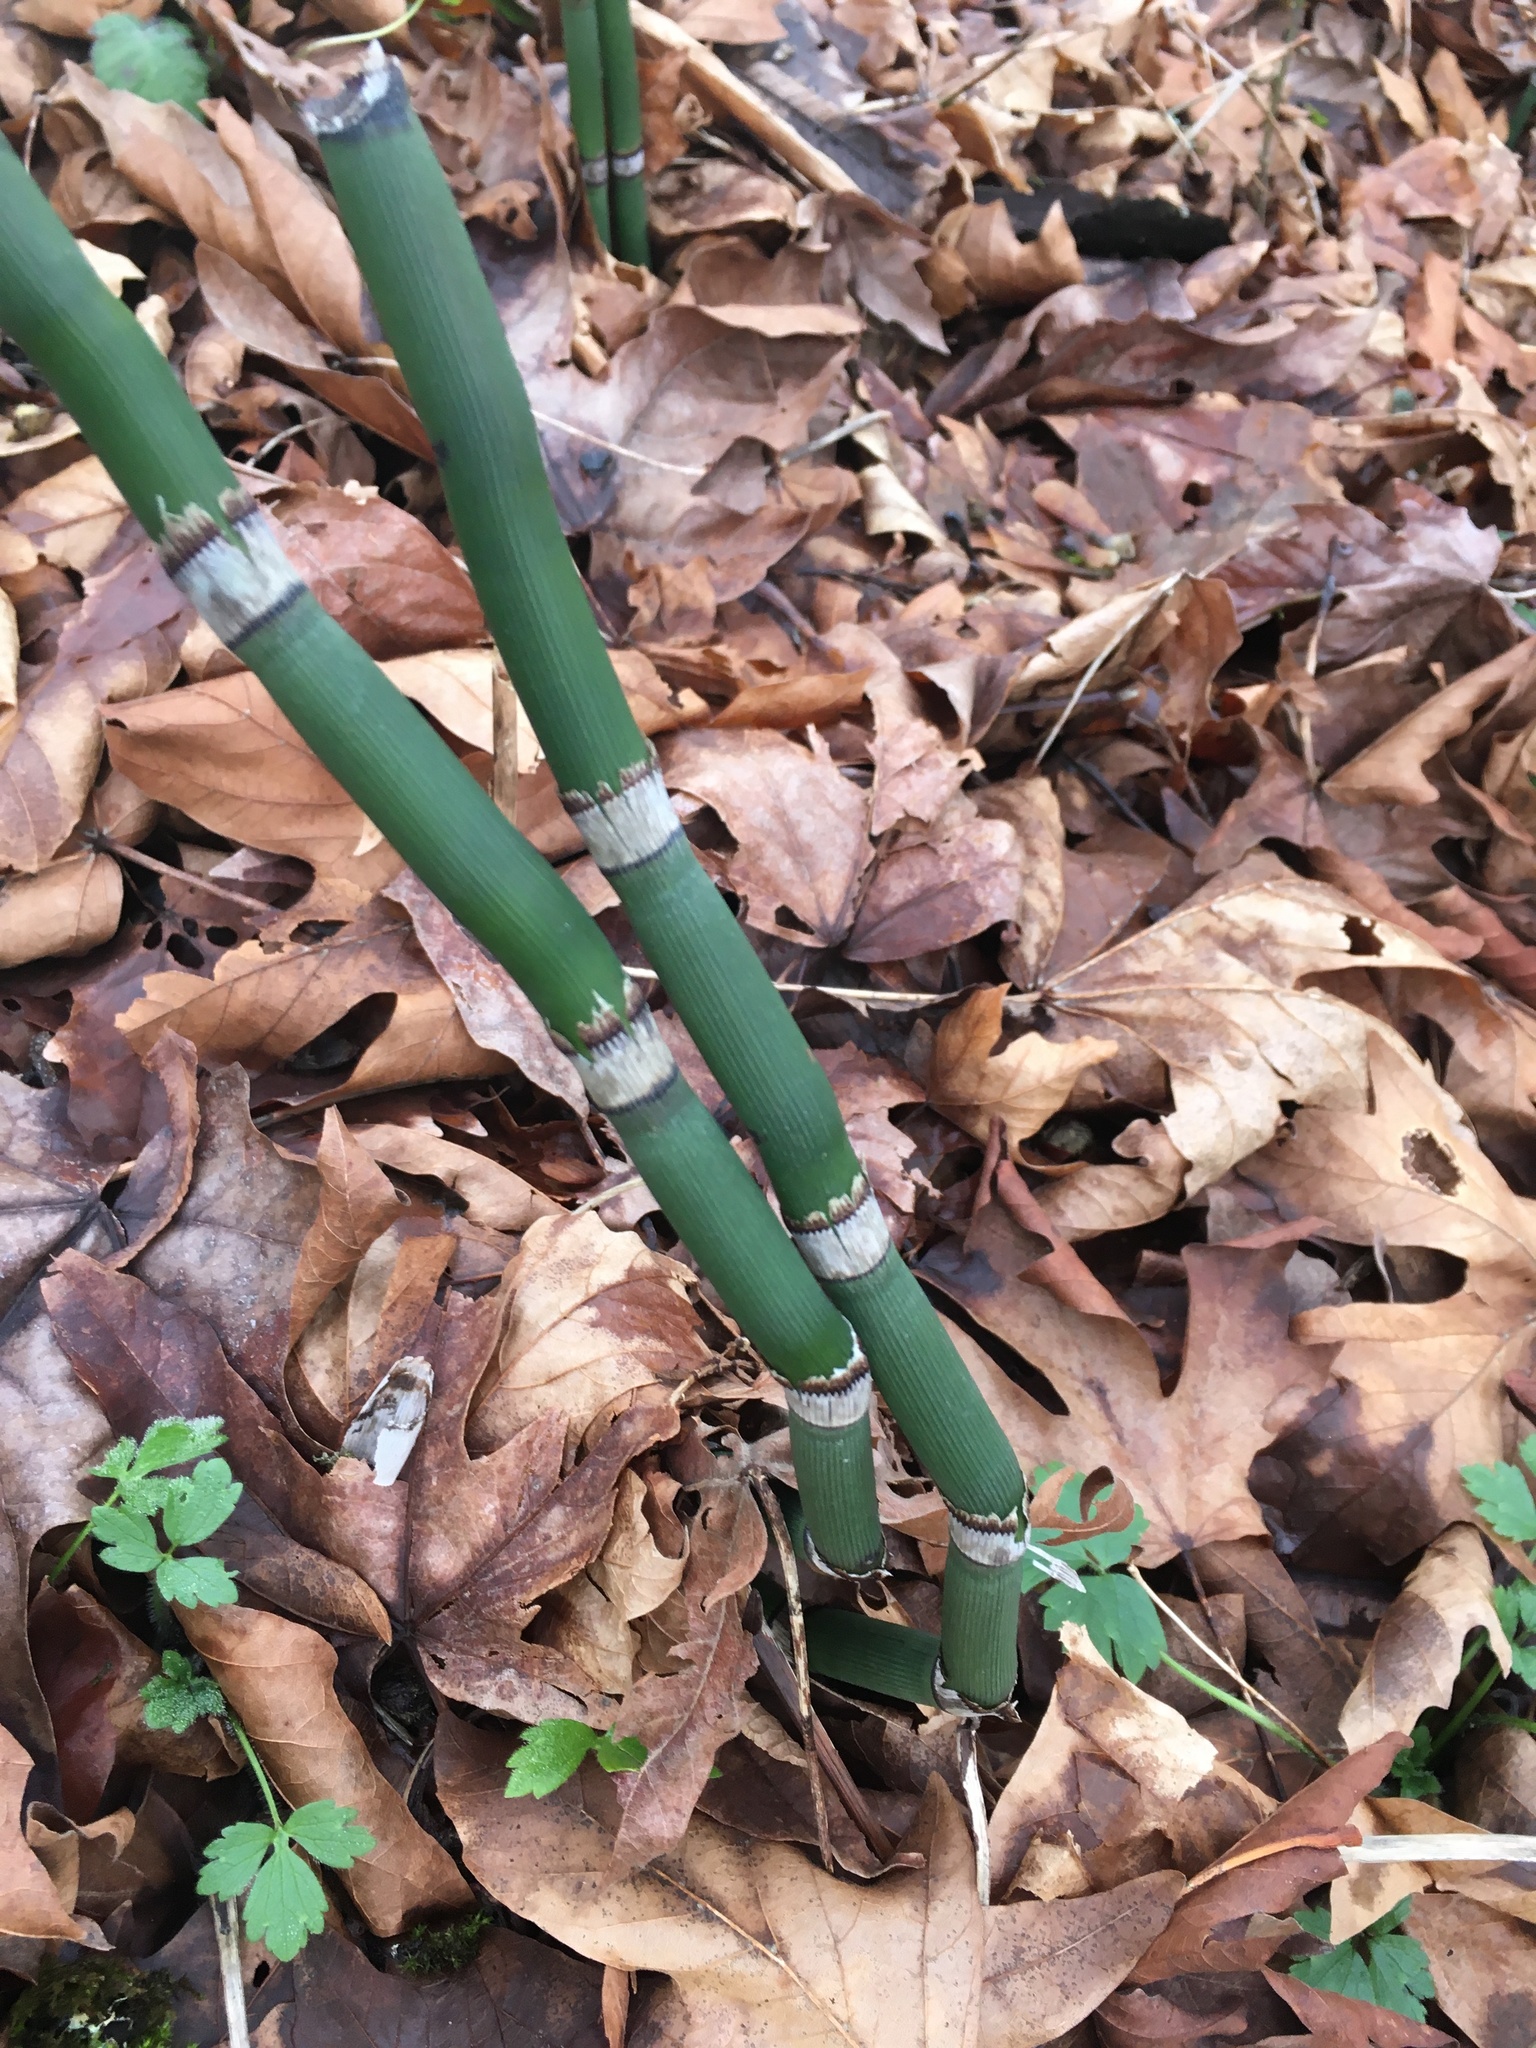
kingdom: Plantae
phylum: Tracheophyta
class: Polypodiopsida
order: Equisetales
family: Equisetaceae
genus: Equisetum
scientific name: Equisetum praealtum
